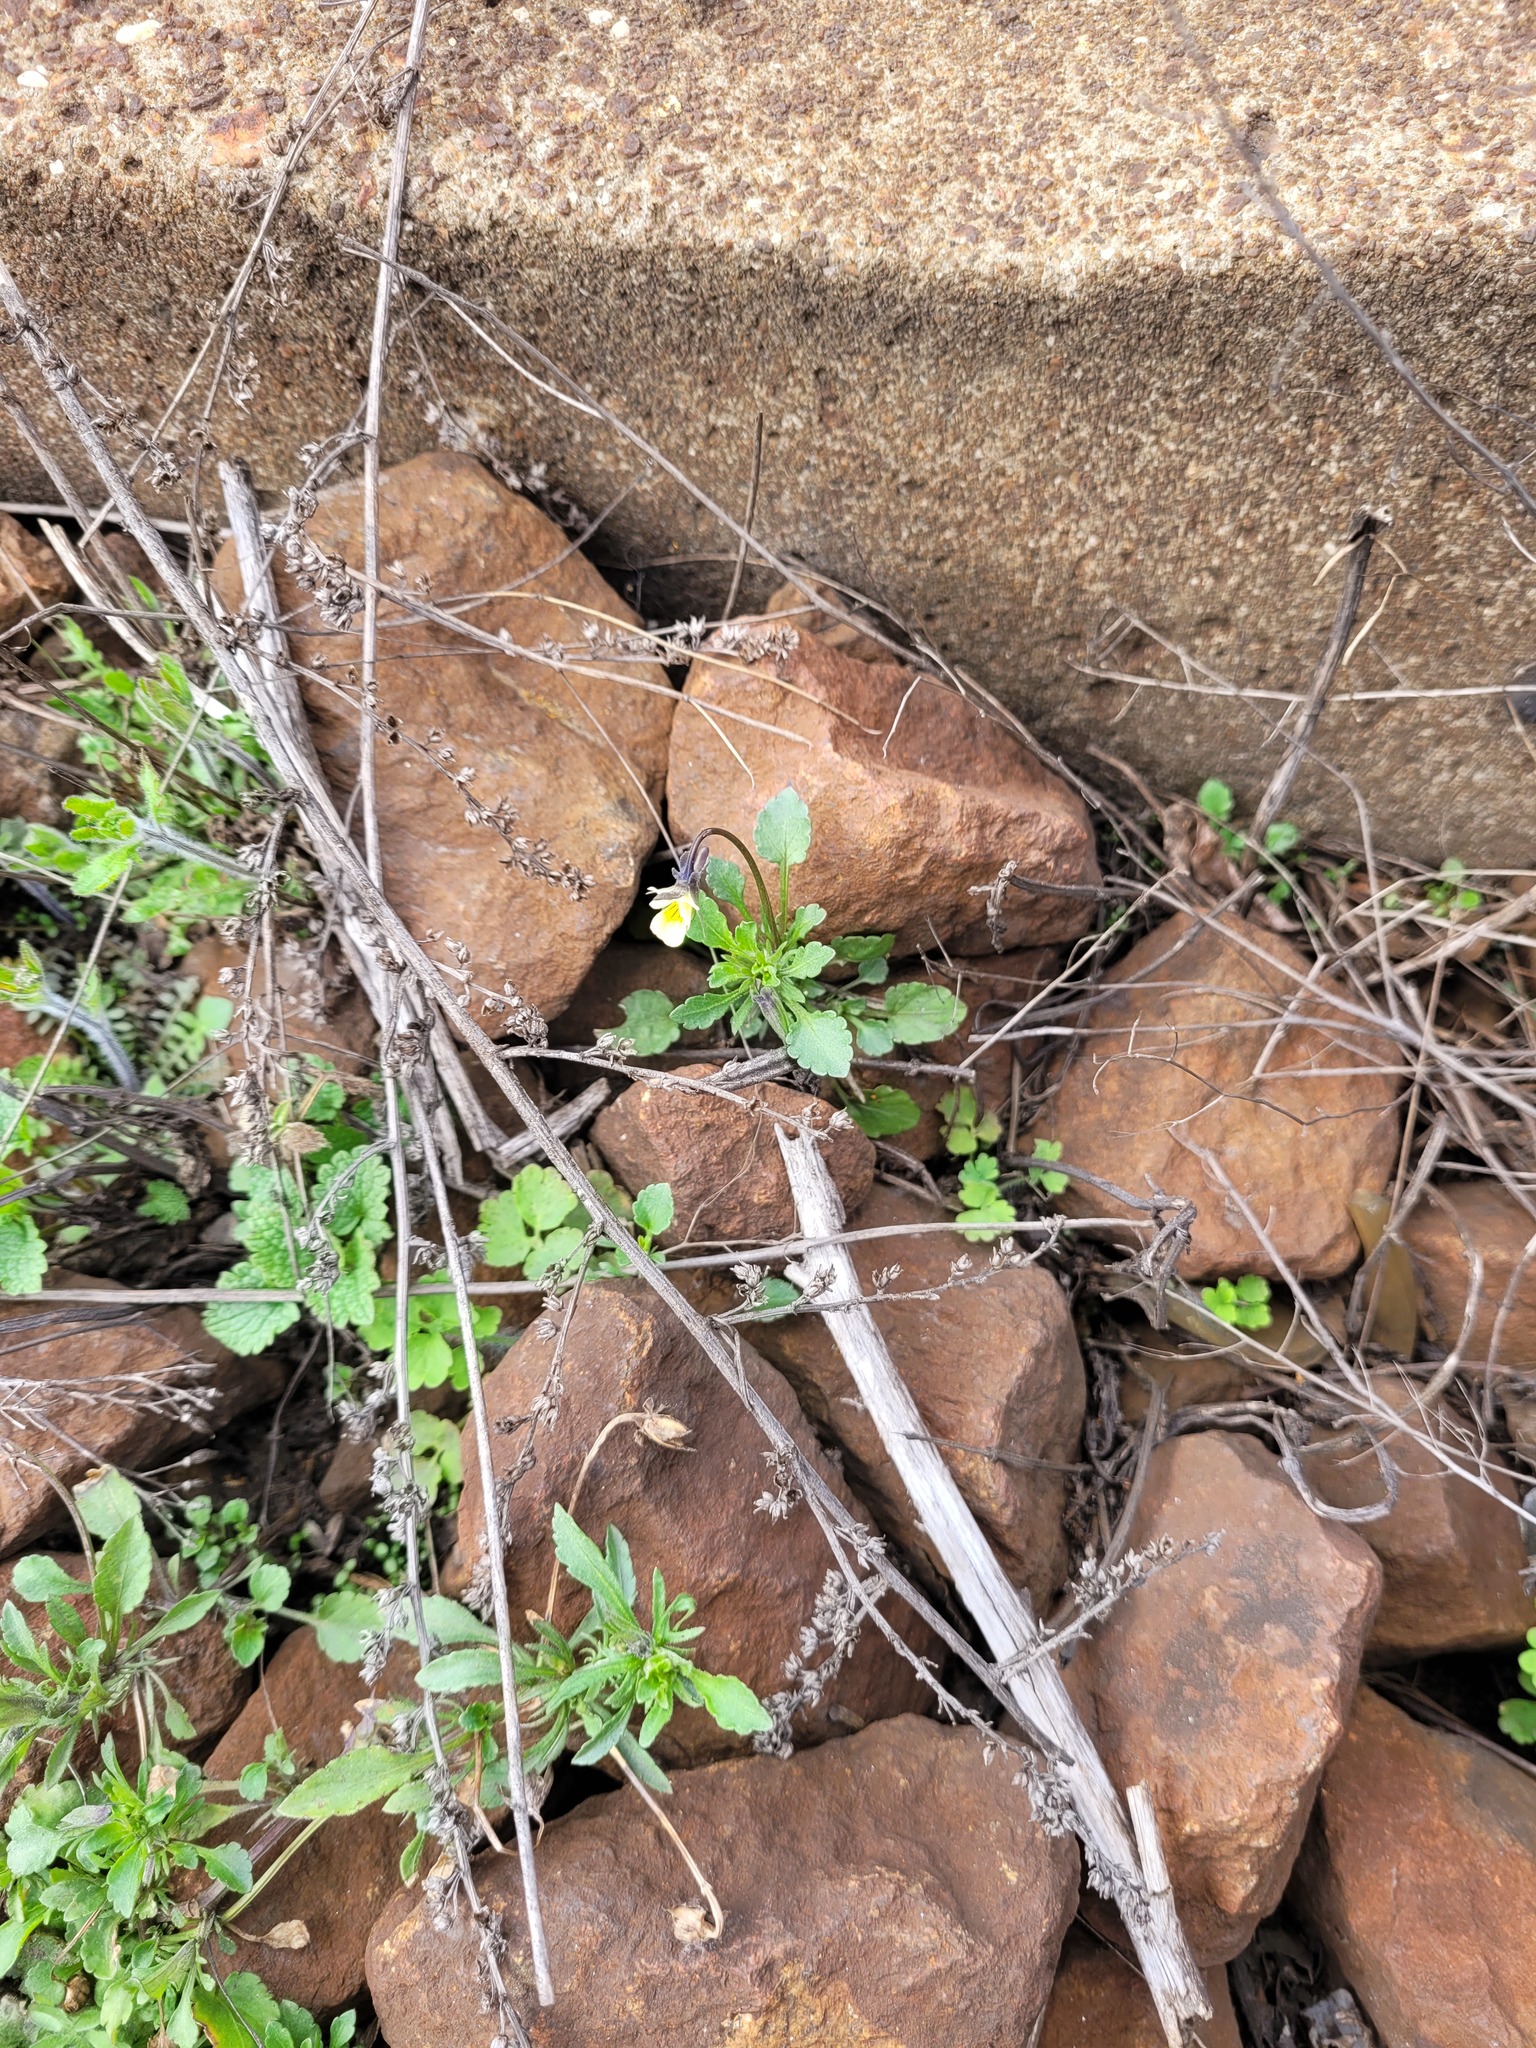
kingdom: Plantae
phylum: Tracheophyta
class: Magnoliopsida
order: Malpighiales
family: Violaceae
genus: Viola
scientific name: Viola arvensis
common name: Field pansy
